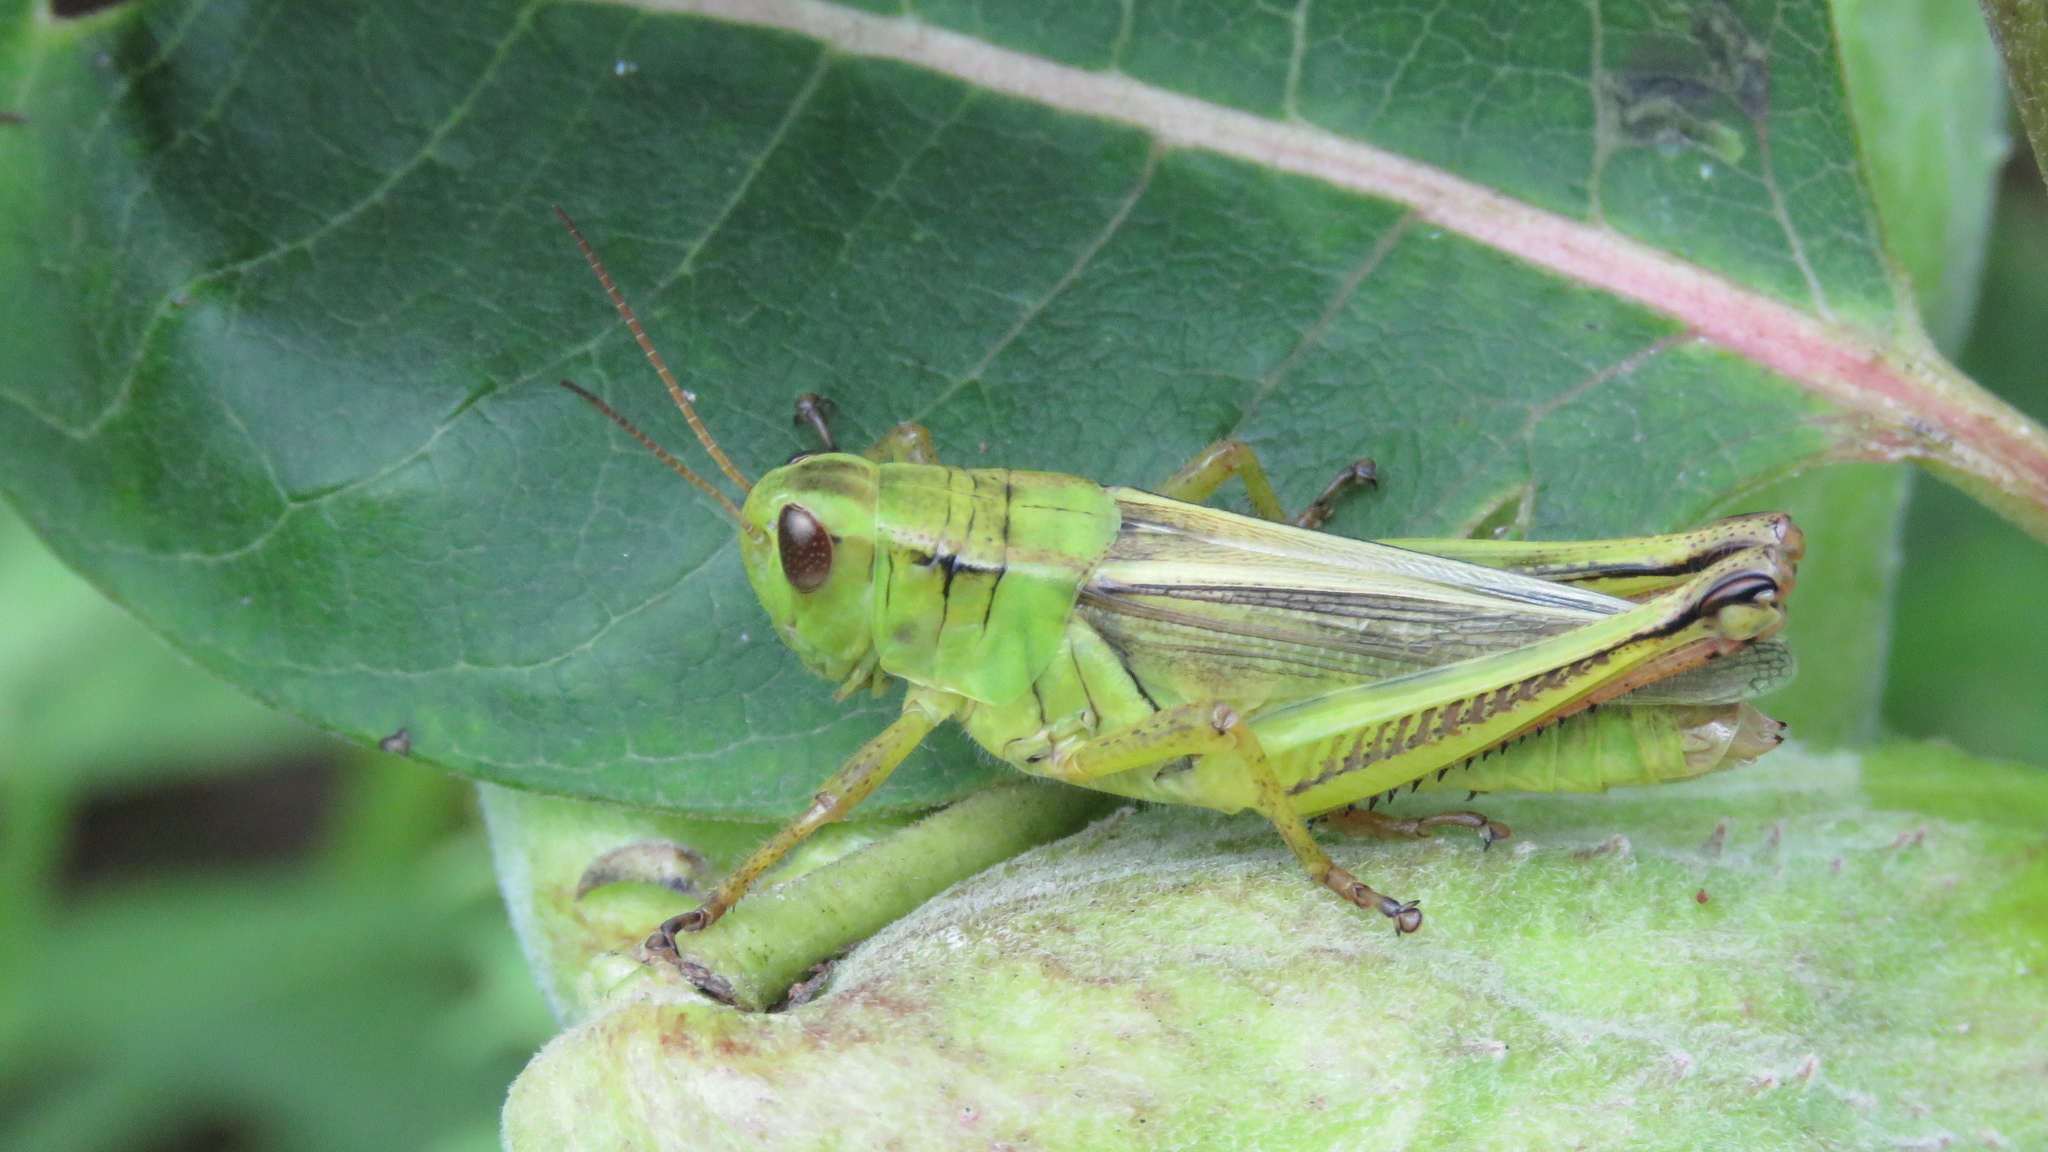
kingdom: Animalia
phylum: Arthropoda
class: Insecta
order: Orthoptera
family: Acrididae
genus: Melanoplus
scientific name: Melanoplus bivittatus
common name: Two-striped grasshopper
